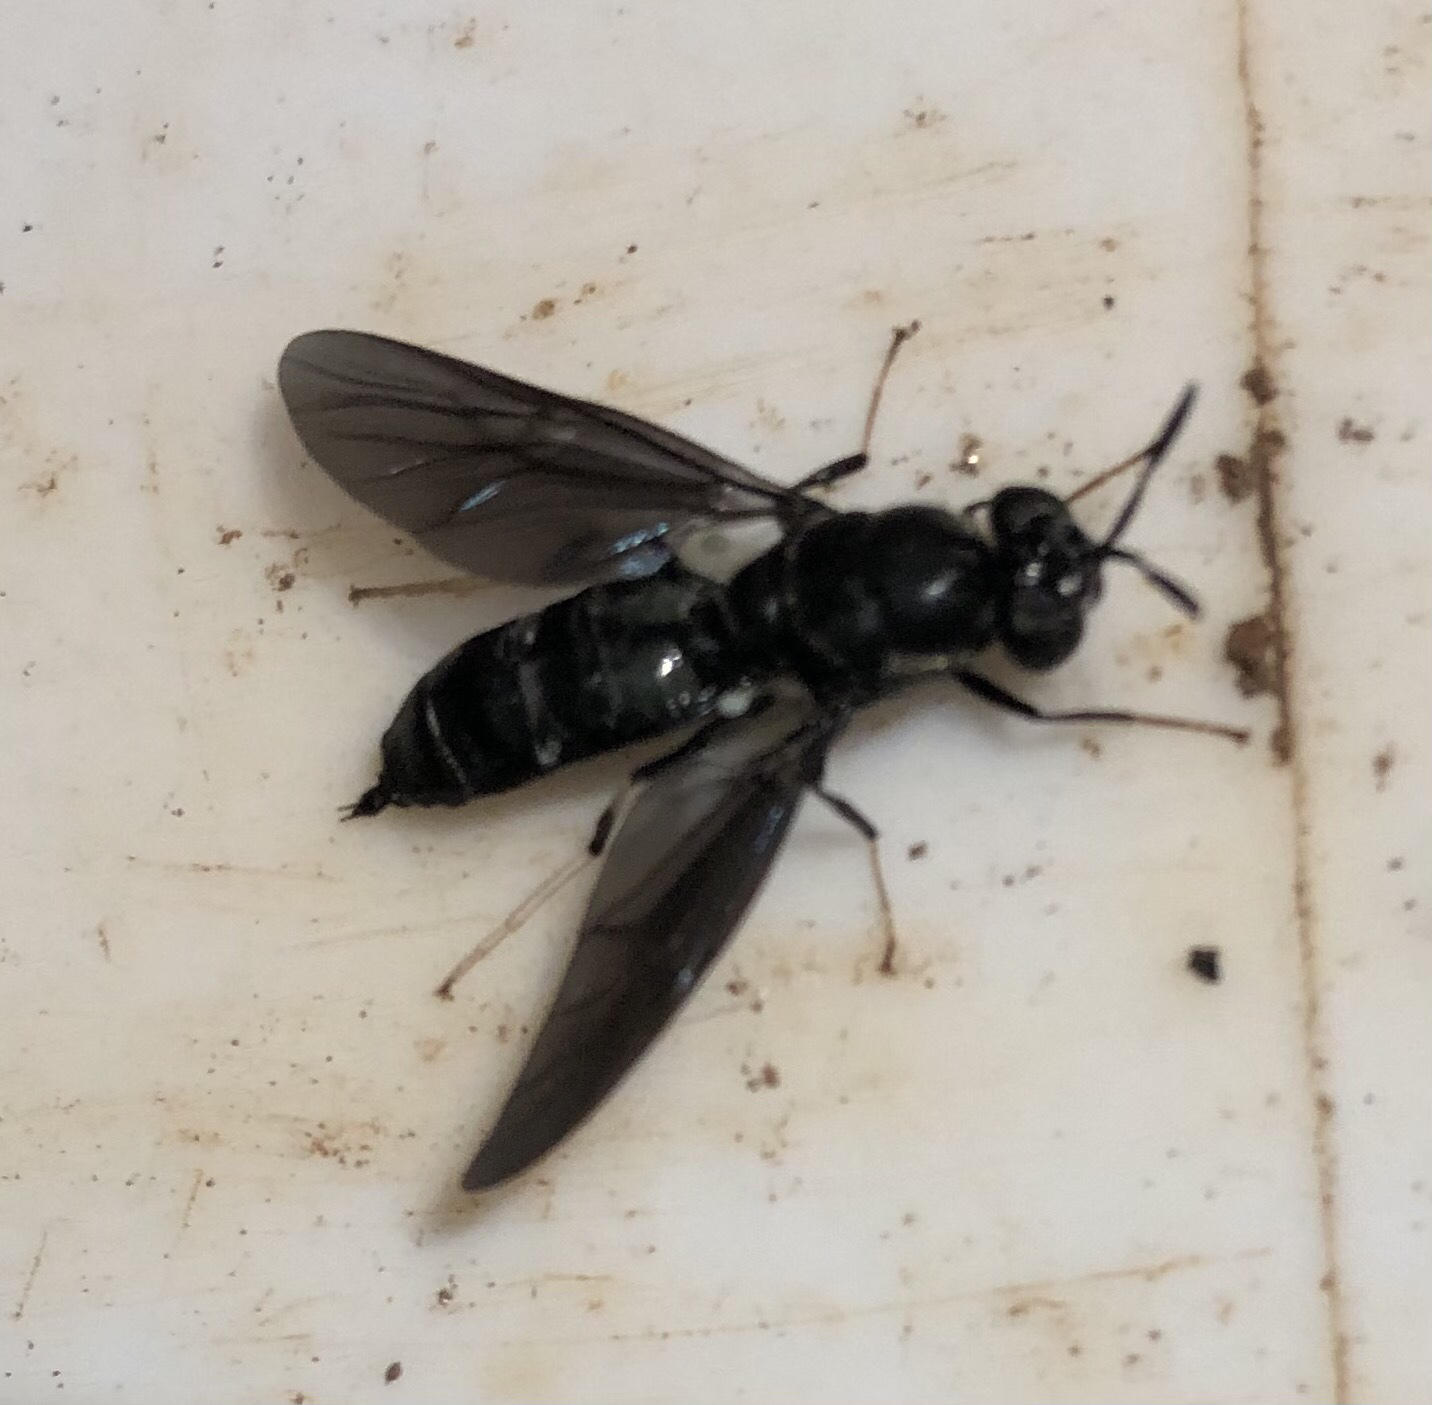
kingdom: Animalia
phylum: Arthropoda
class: Insecta
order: Diptera
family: Stratiomyidae
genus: Hermetia
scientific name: Hermetia illucens
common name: Black soldier fly
